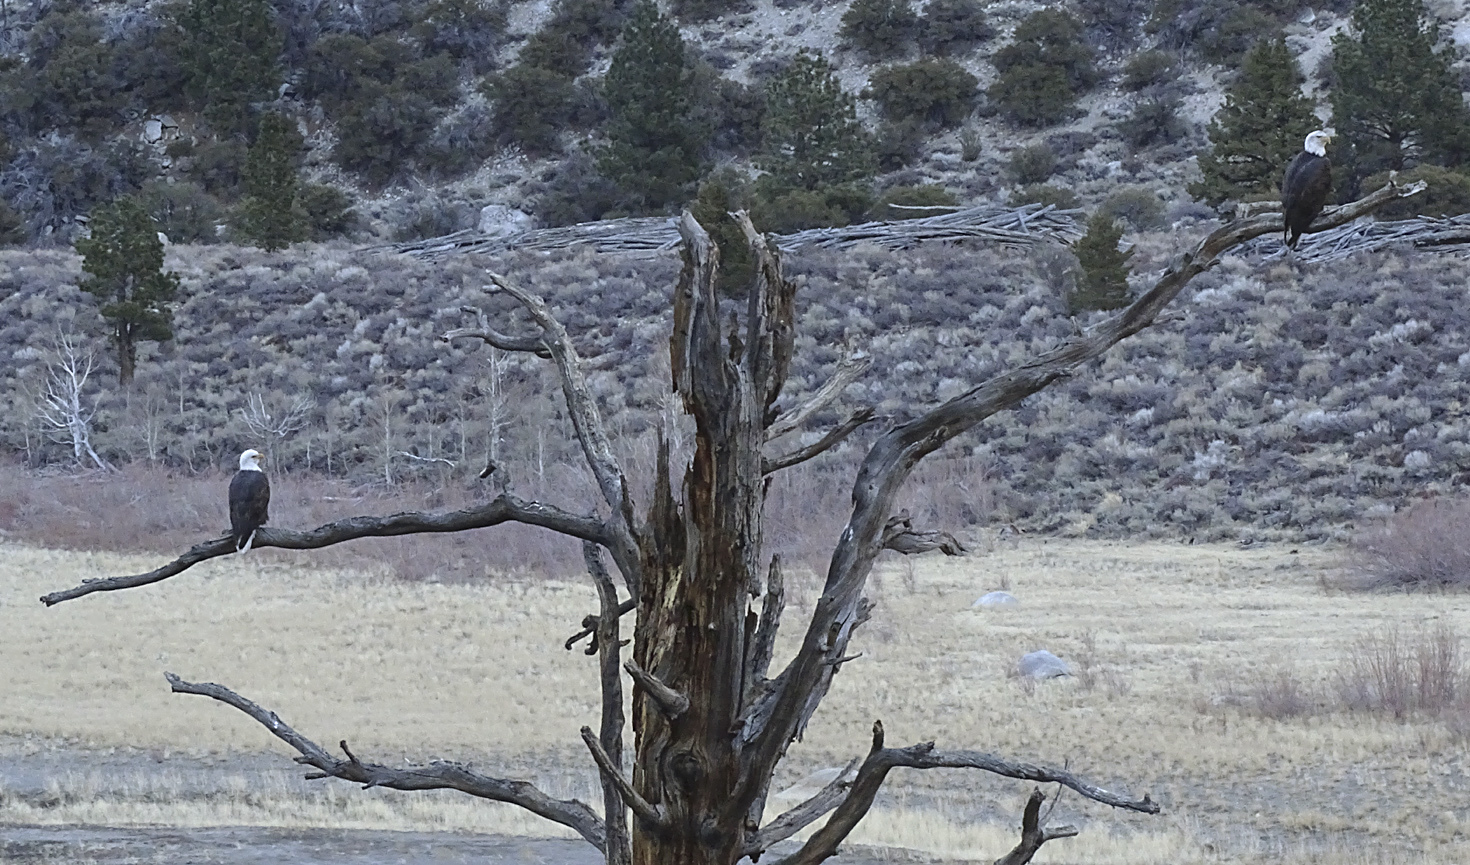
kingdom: Animalia
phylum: Chordata
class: Aves
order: Accipitriformes
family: Accipitridae
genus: Haliaeetus
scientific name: Haliaeetus leucocephalus
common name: Bald eagle
